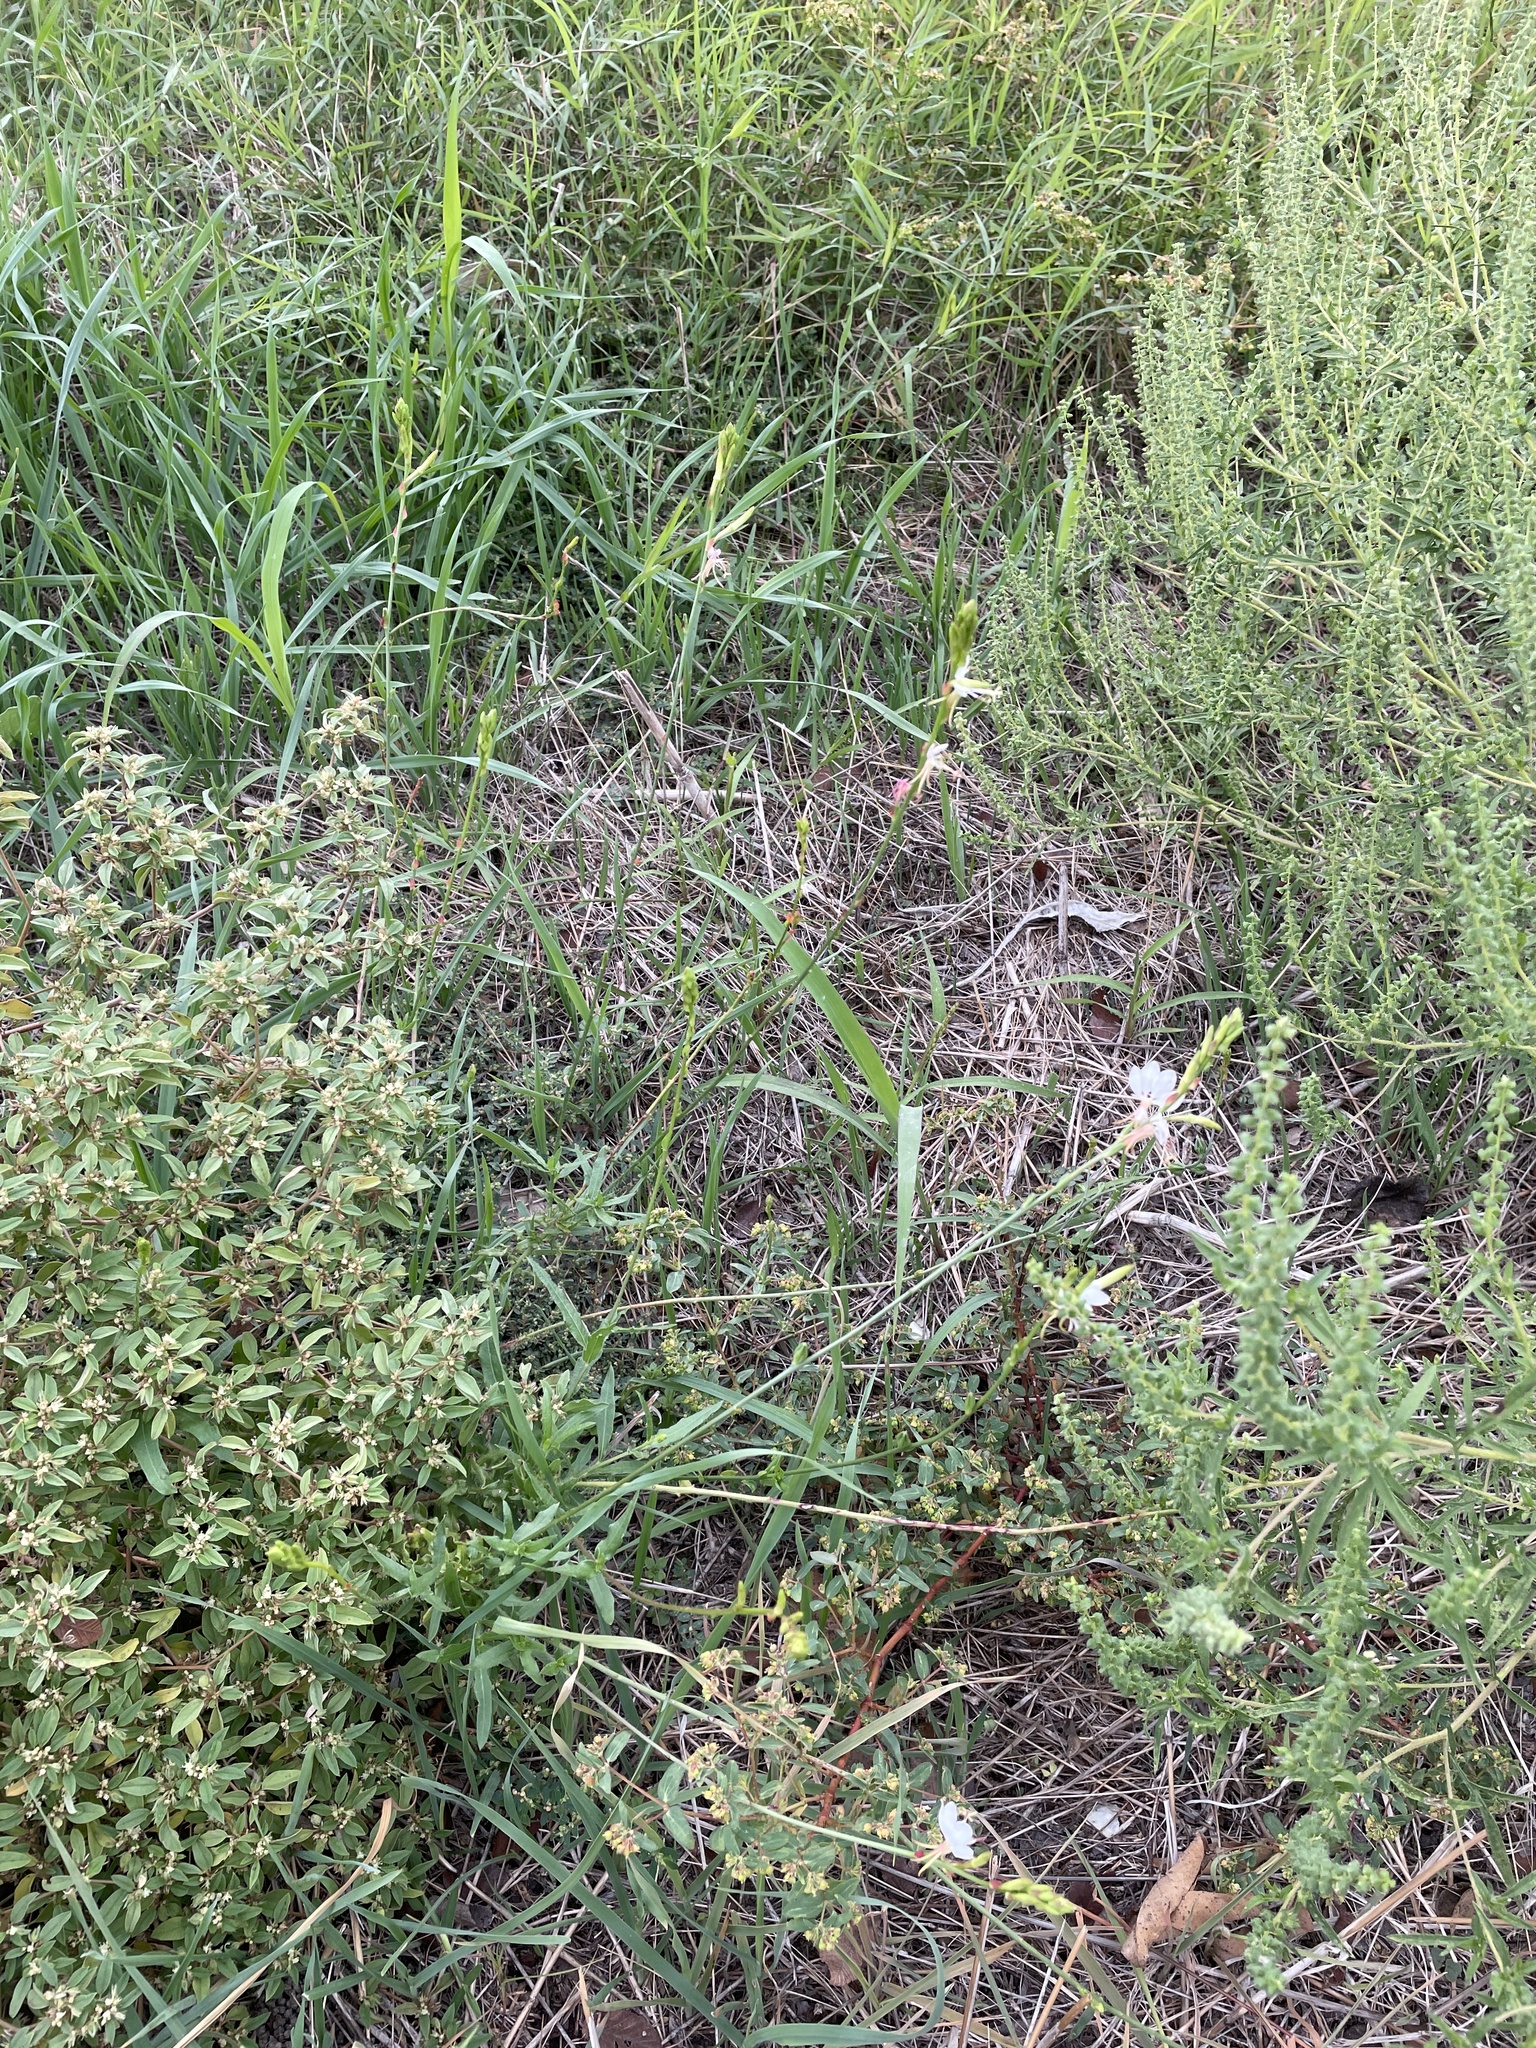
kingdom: Plantae
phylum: Tracheophyta
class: Magnoliopsida
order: Myrtales
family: Onagraceae
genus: Oenothera
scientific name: Oenothera suffulta
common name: Kisses
